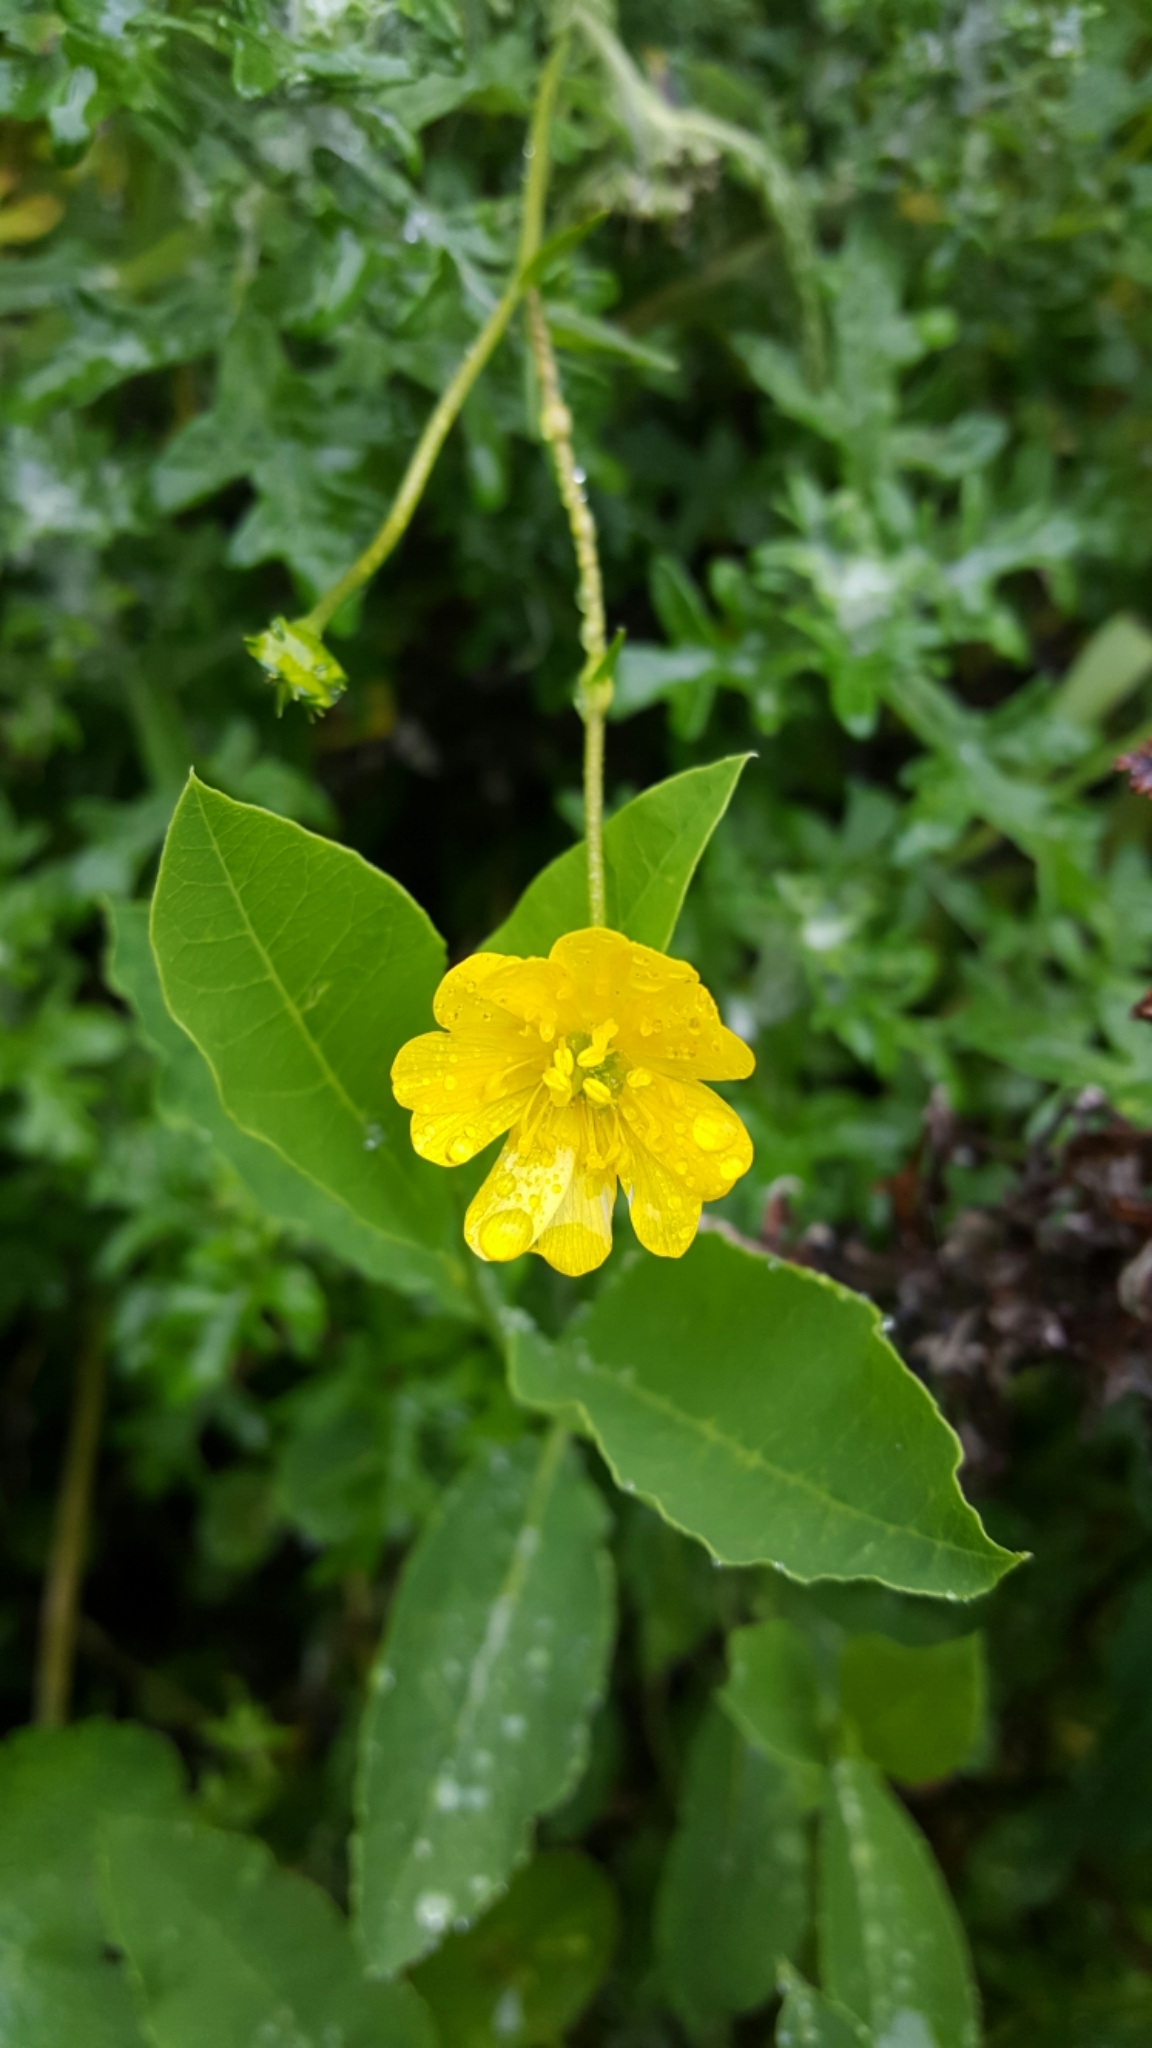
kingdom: Plantae
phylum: Tracheophyta
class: Magnoliopsida
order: Ranunculales
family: Ranunculaceae
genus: Ranunculus
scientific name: Ranunculus californicus
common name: California buttercup
